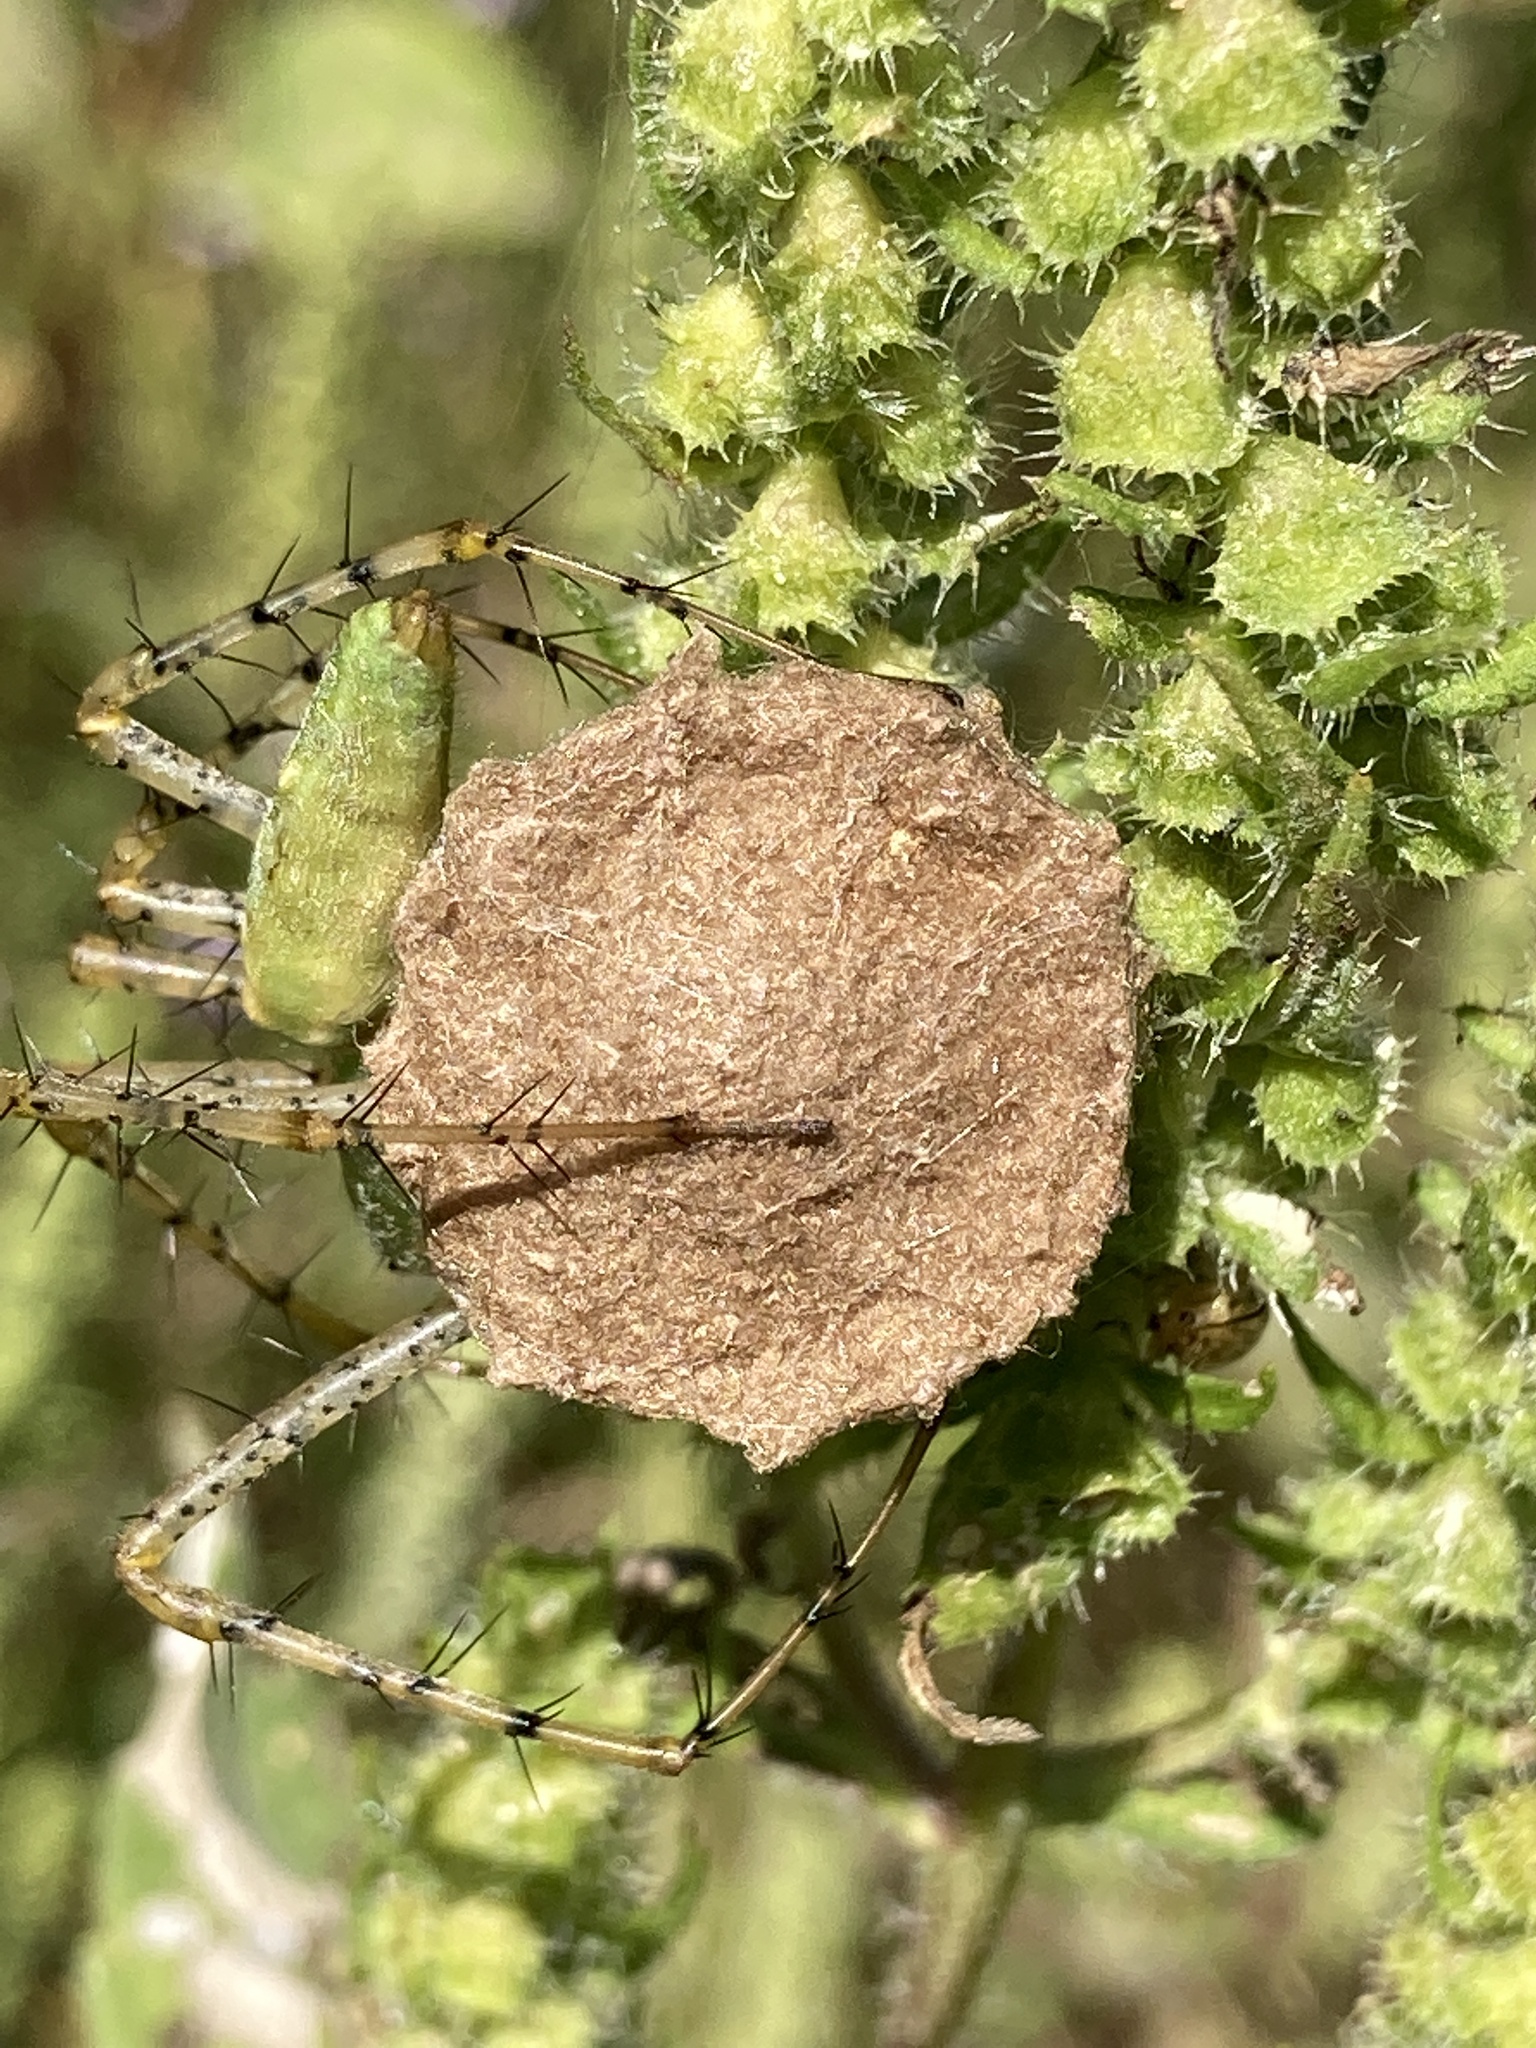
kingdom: Animalia
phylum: Arthropoda
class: Arachnida
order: Araneae
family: Oxyopidae
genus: Peucetia
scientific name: Peucetia viridans
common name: Lynx spiders
